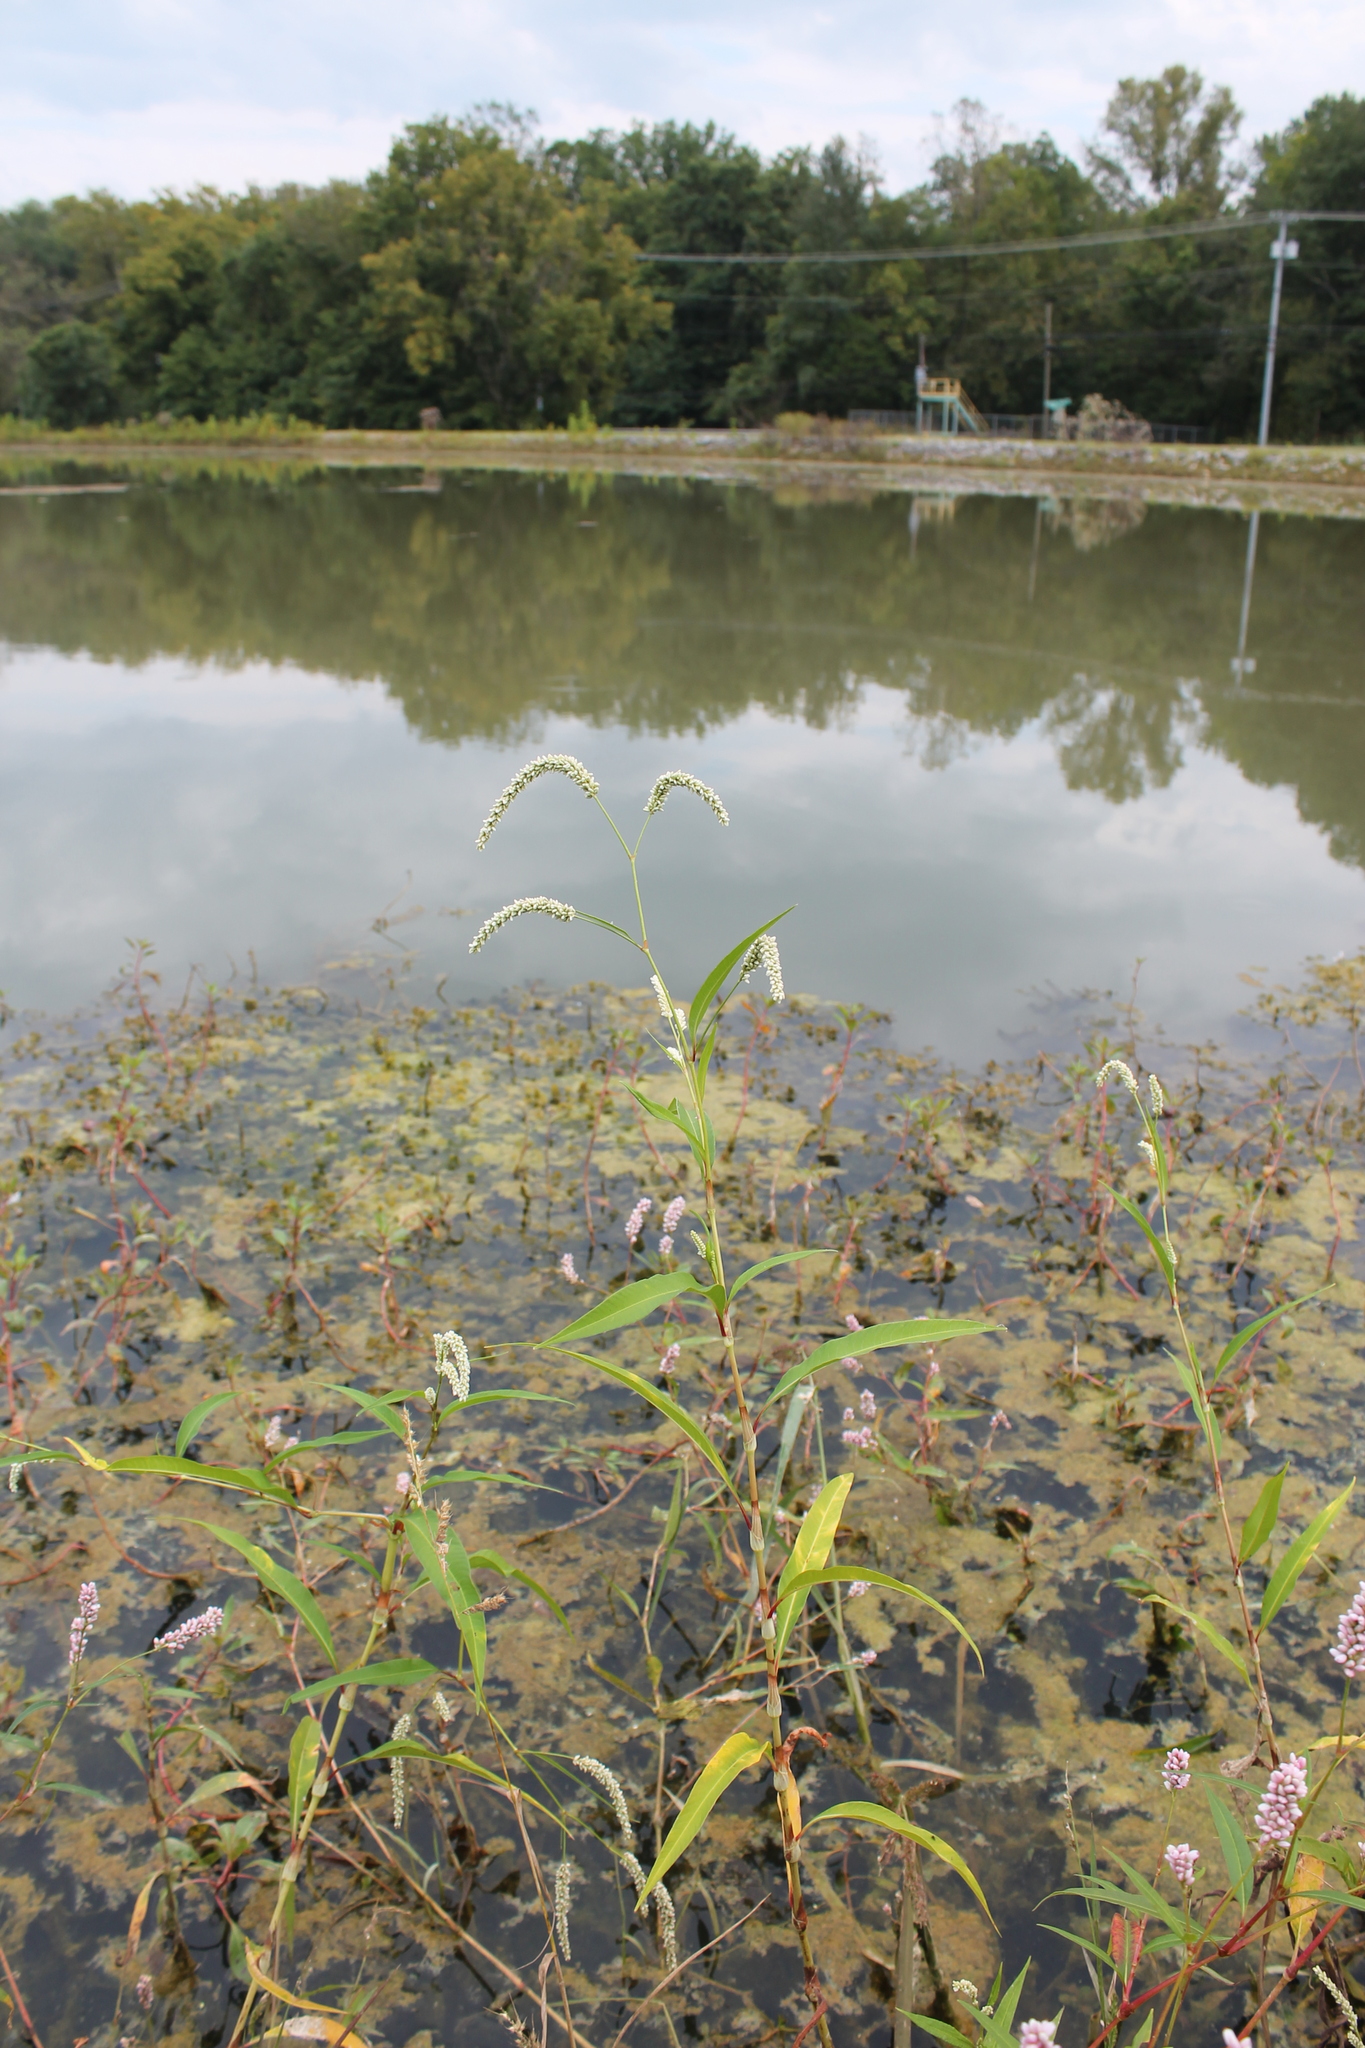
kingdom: Plantae
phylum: Tracheophyta
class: Magnoliopsida
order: Caryophyllales
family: Polygonaceae
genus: Persicaria
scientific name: Persicaria lapathifolia
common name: Curlytop knotweed
